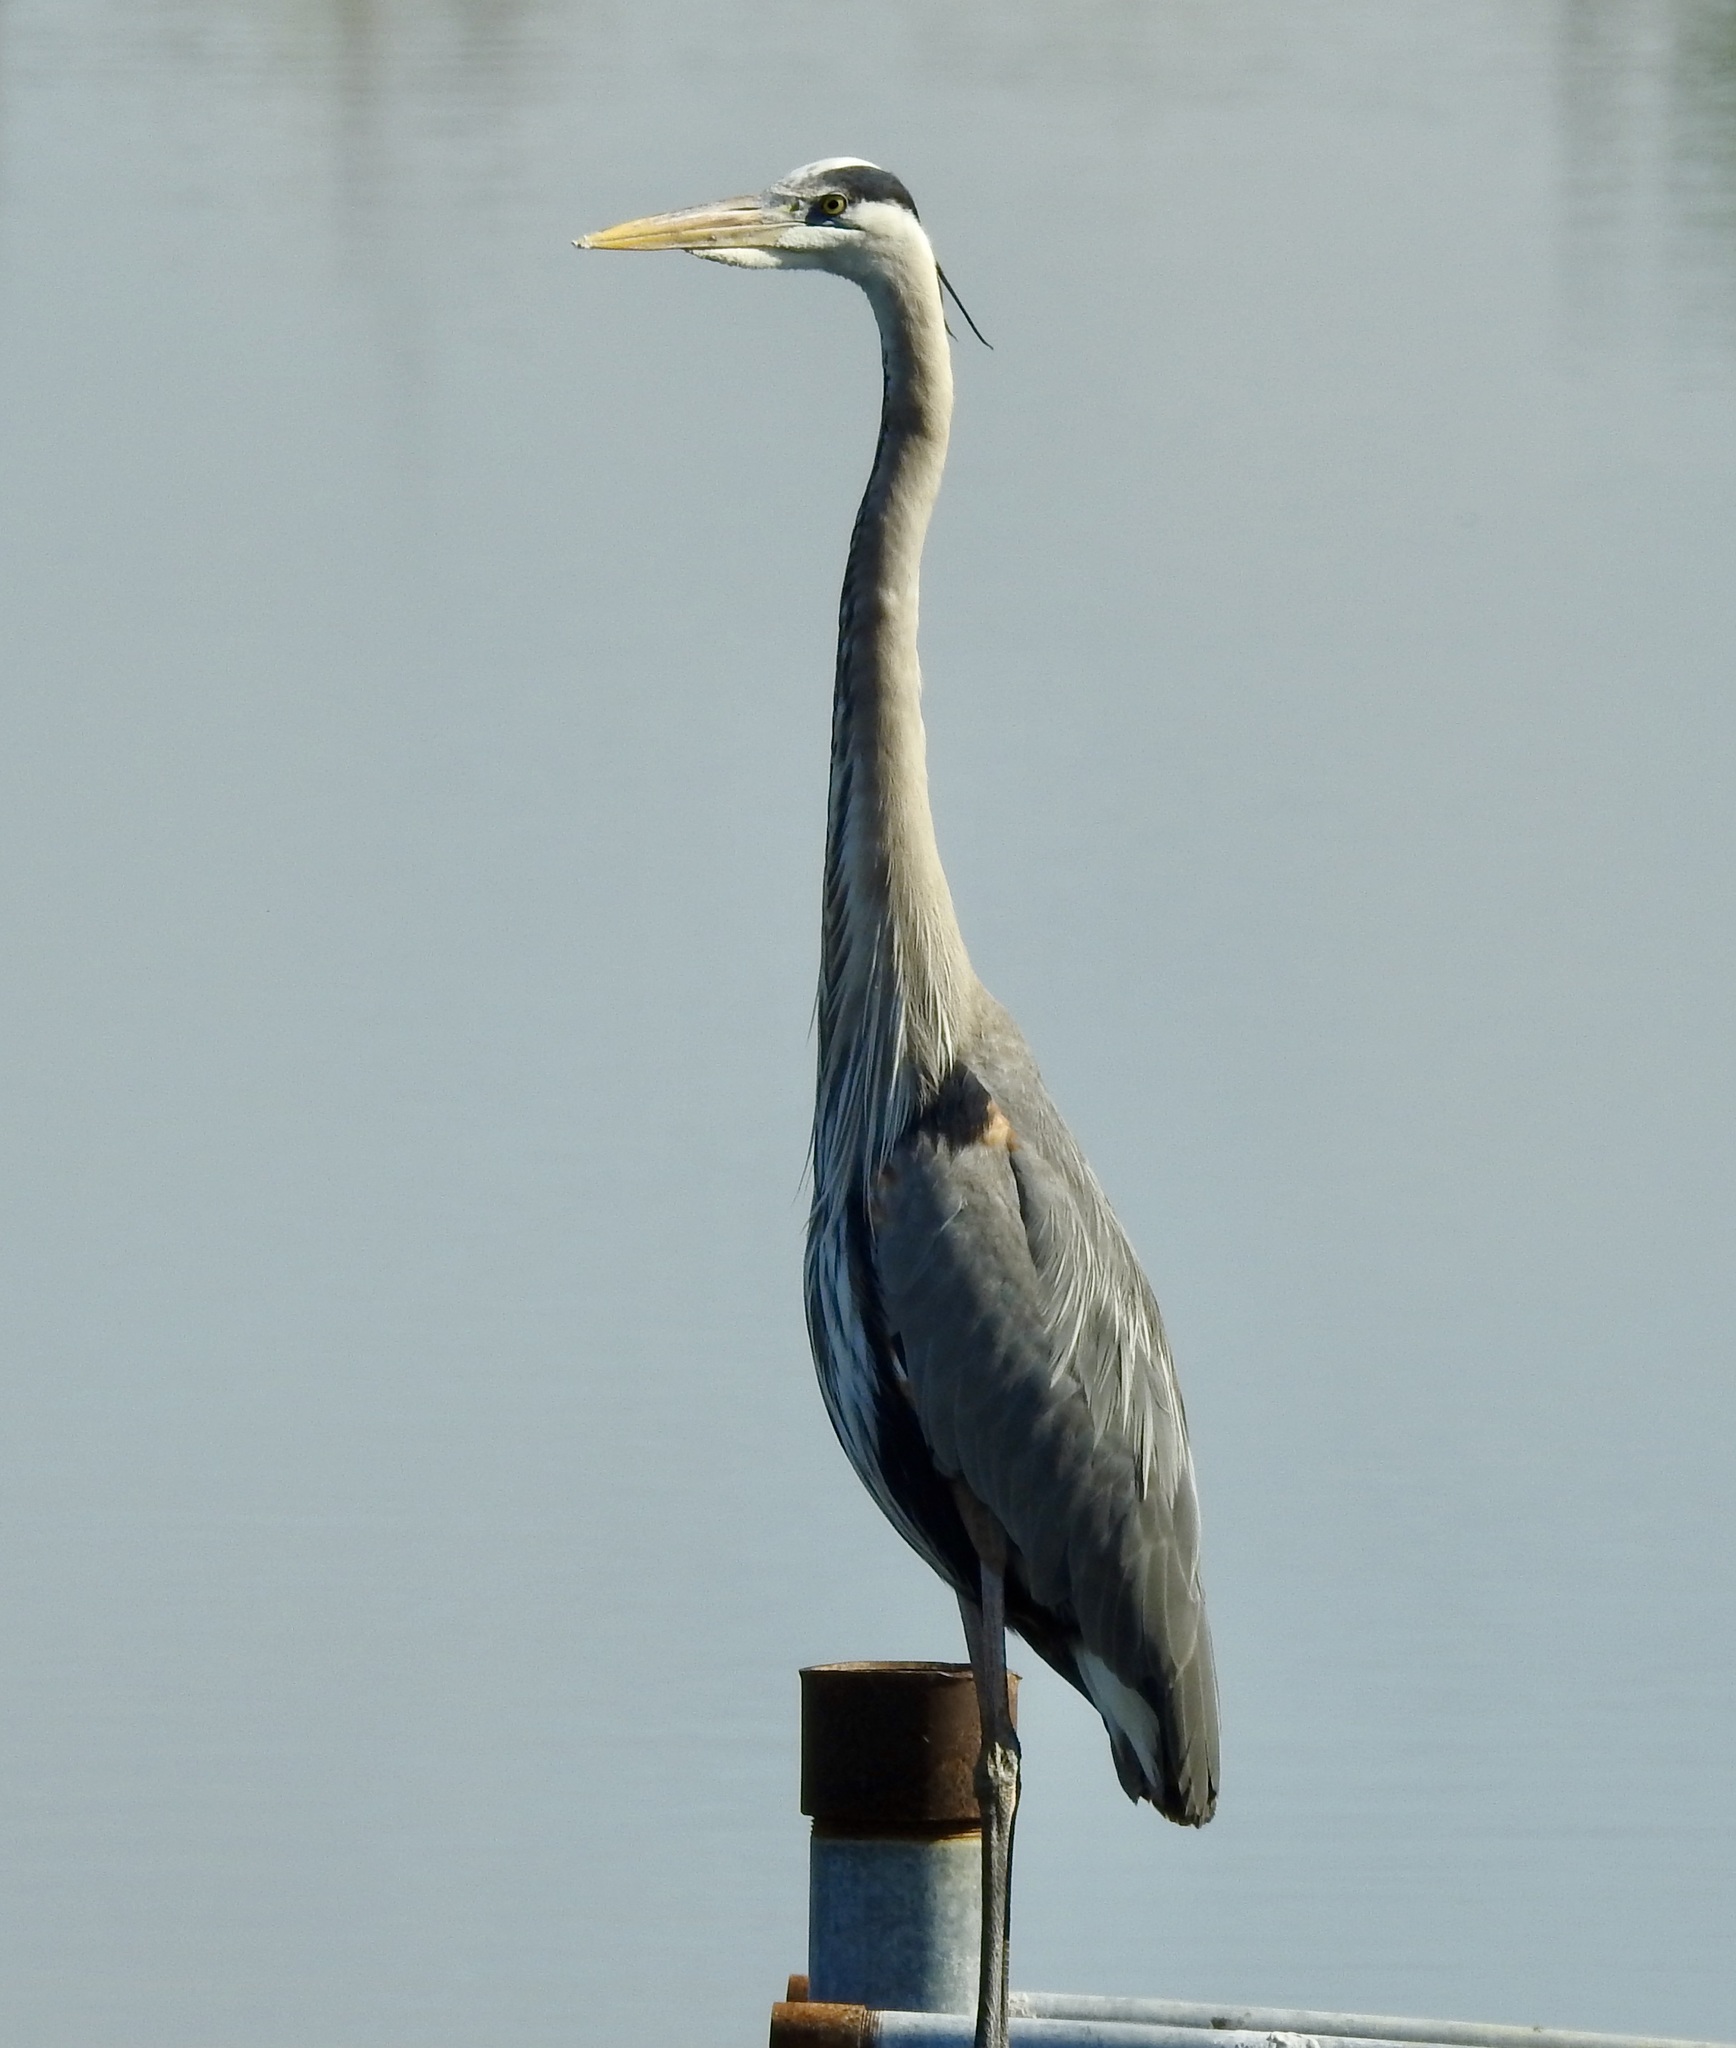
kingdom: Animalia
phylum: Chordata
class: Aves
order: Pelecaniformes
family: Ardeidae
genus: Ardea
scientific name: Ardea herodias
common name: Great blue heron
